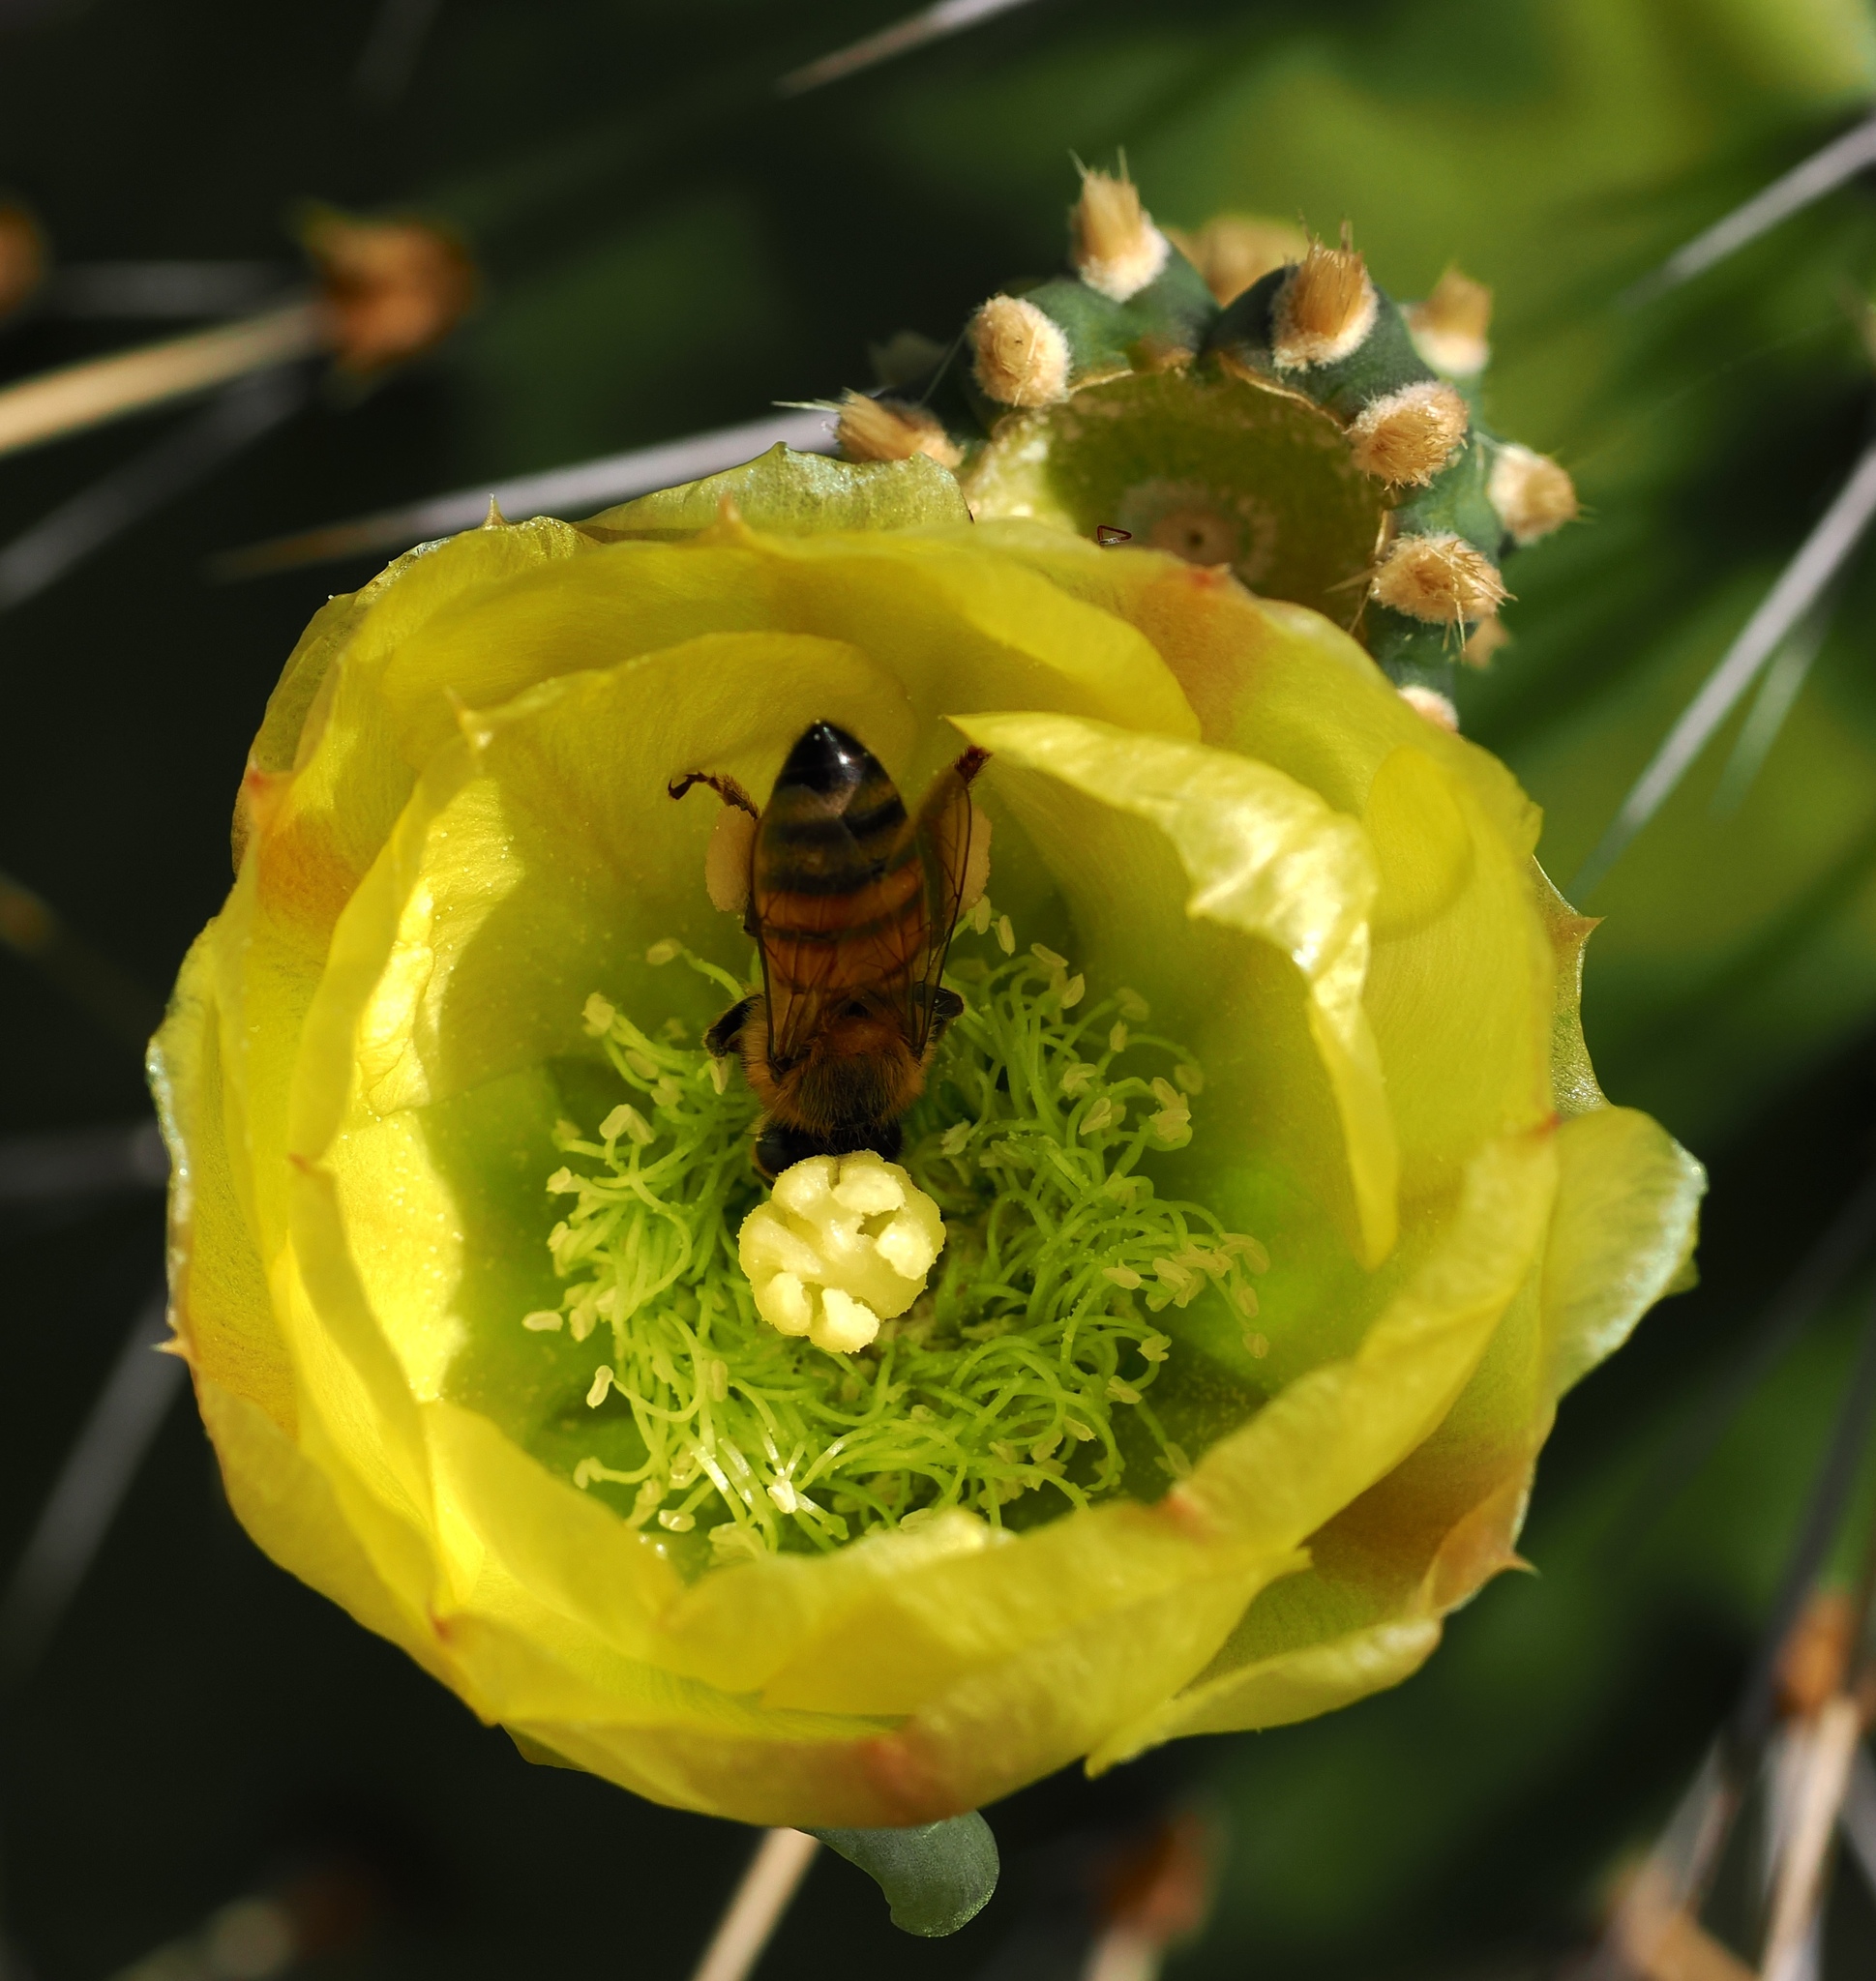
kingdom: Plantae
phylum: Tracheophyta
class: Magnoliopsida
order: Caryophyllales
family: Cactaceae
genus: Opuntia
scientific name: Opuntia caracassana
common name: Common prickly pear
